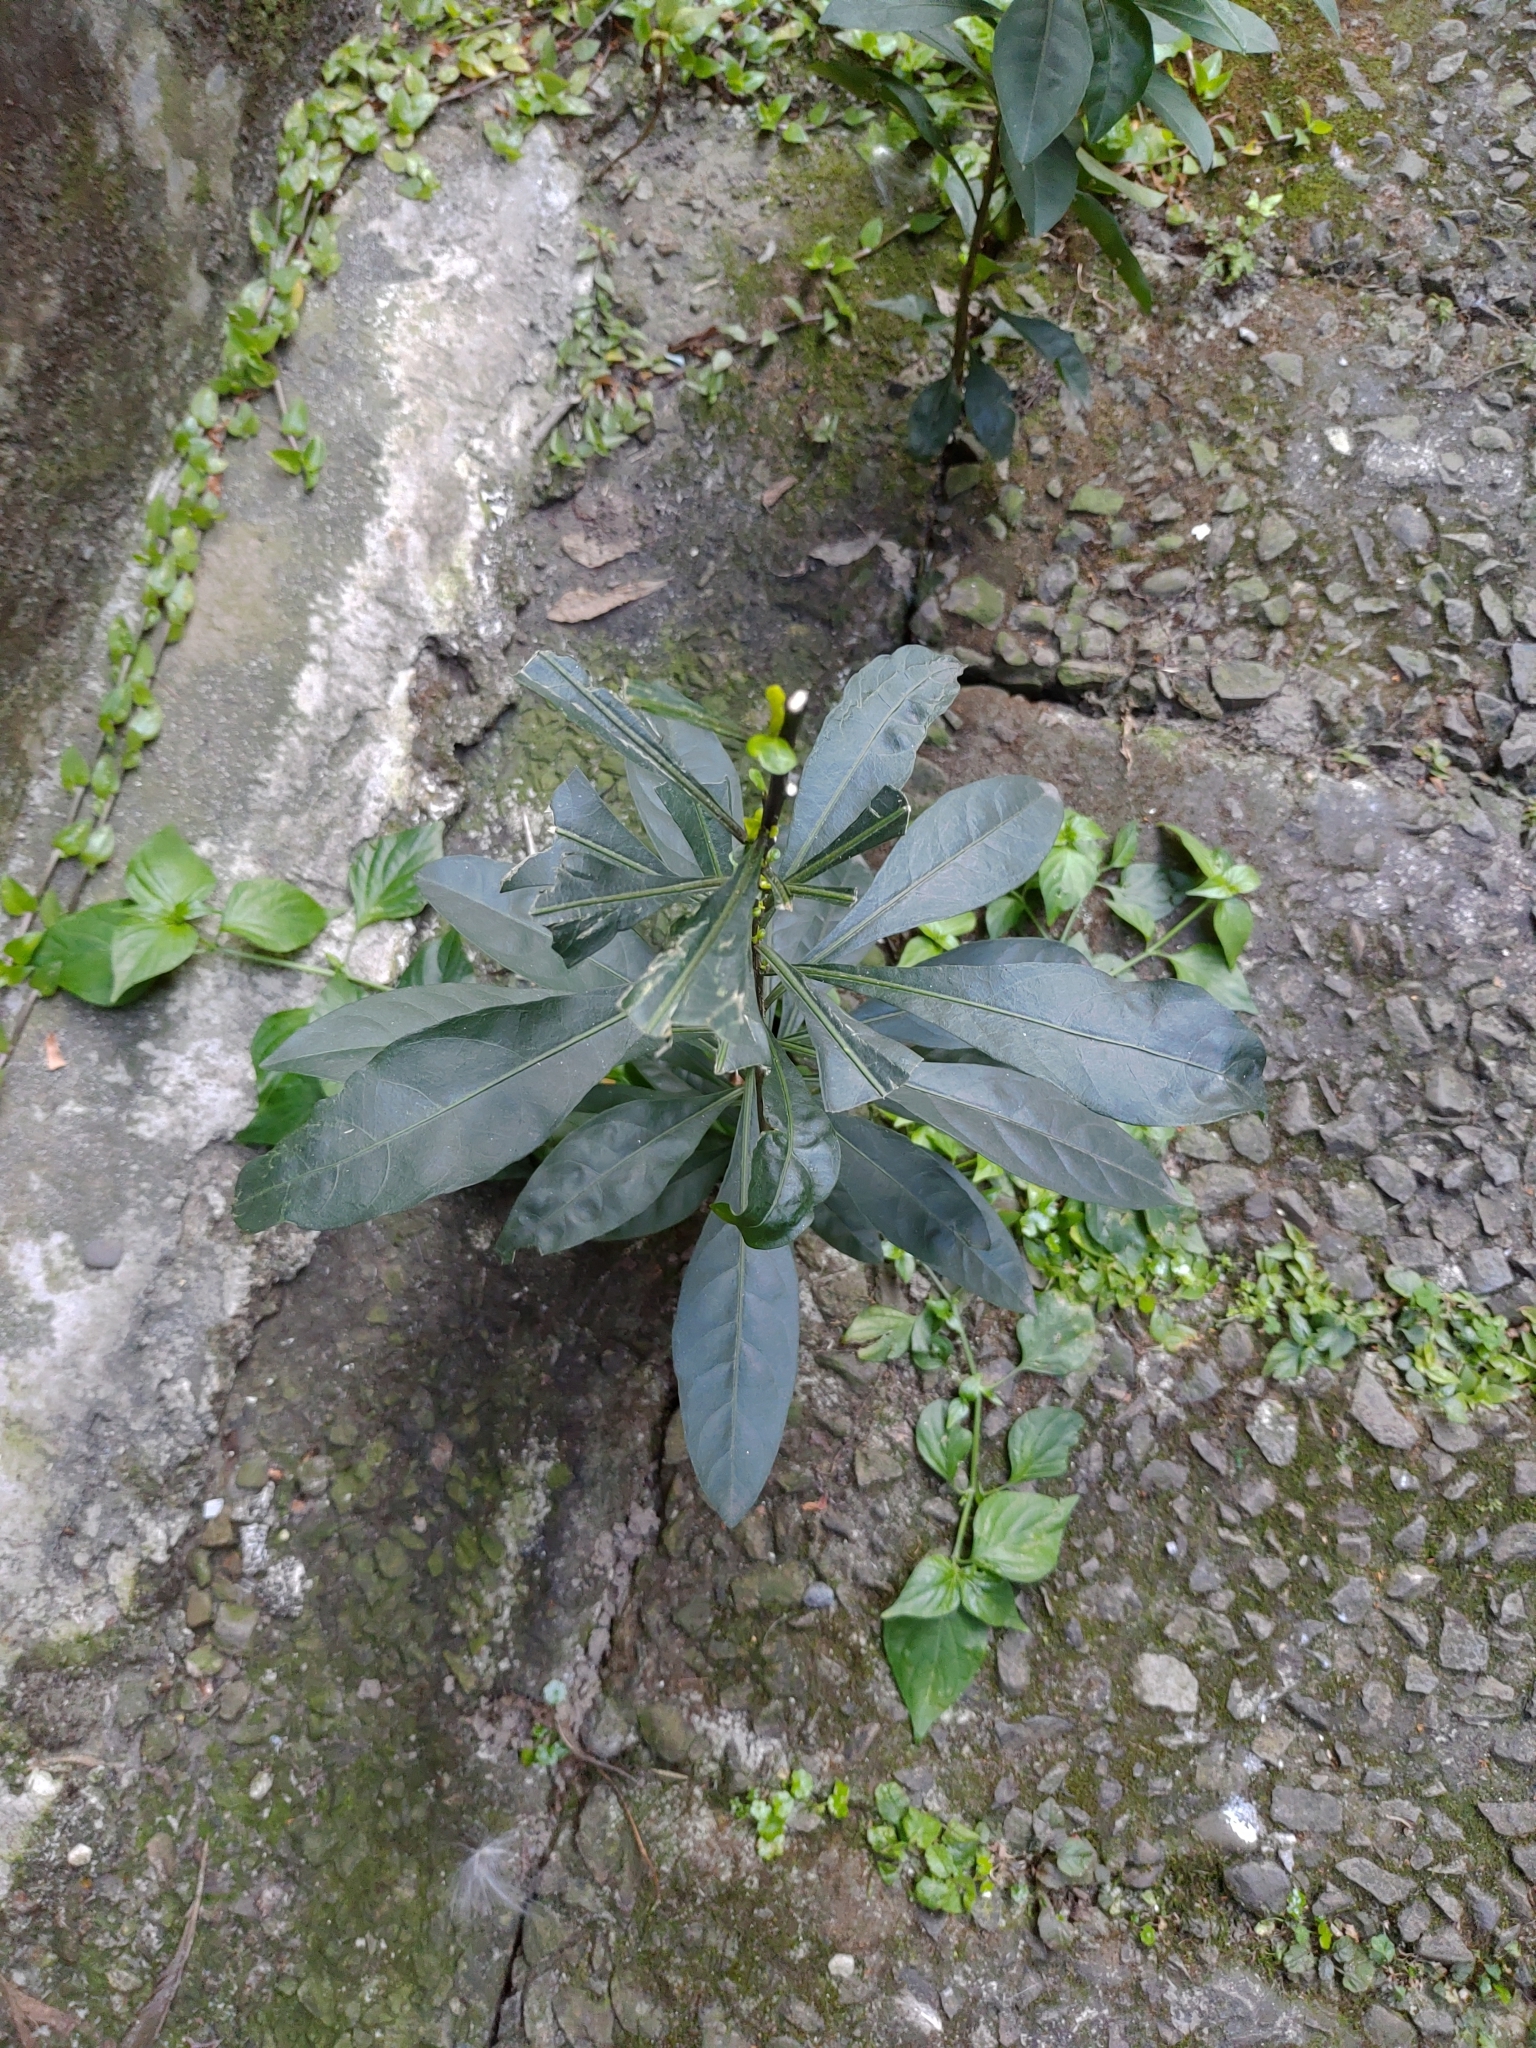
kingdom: Plantae
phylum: Tracheophyta
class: Magnoliopsida
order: Solanales
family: Solanaceae
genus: Solanum
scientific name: Solanum diphyllum
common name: Twoleaf nightshade
